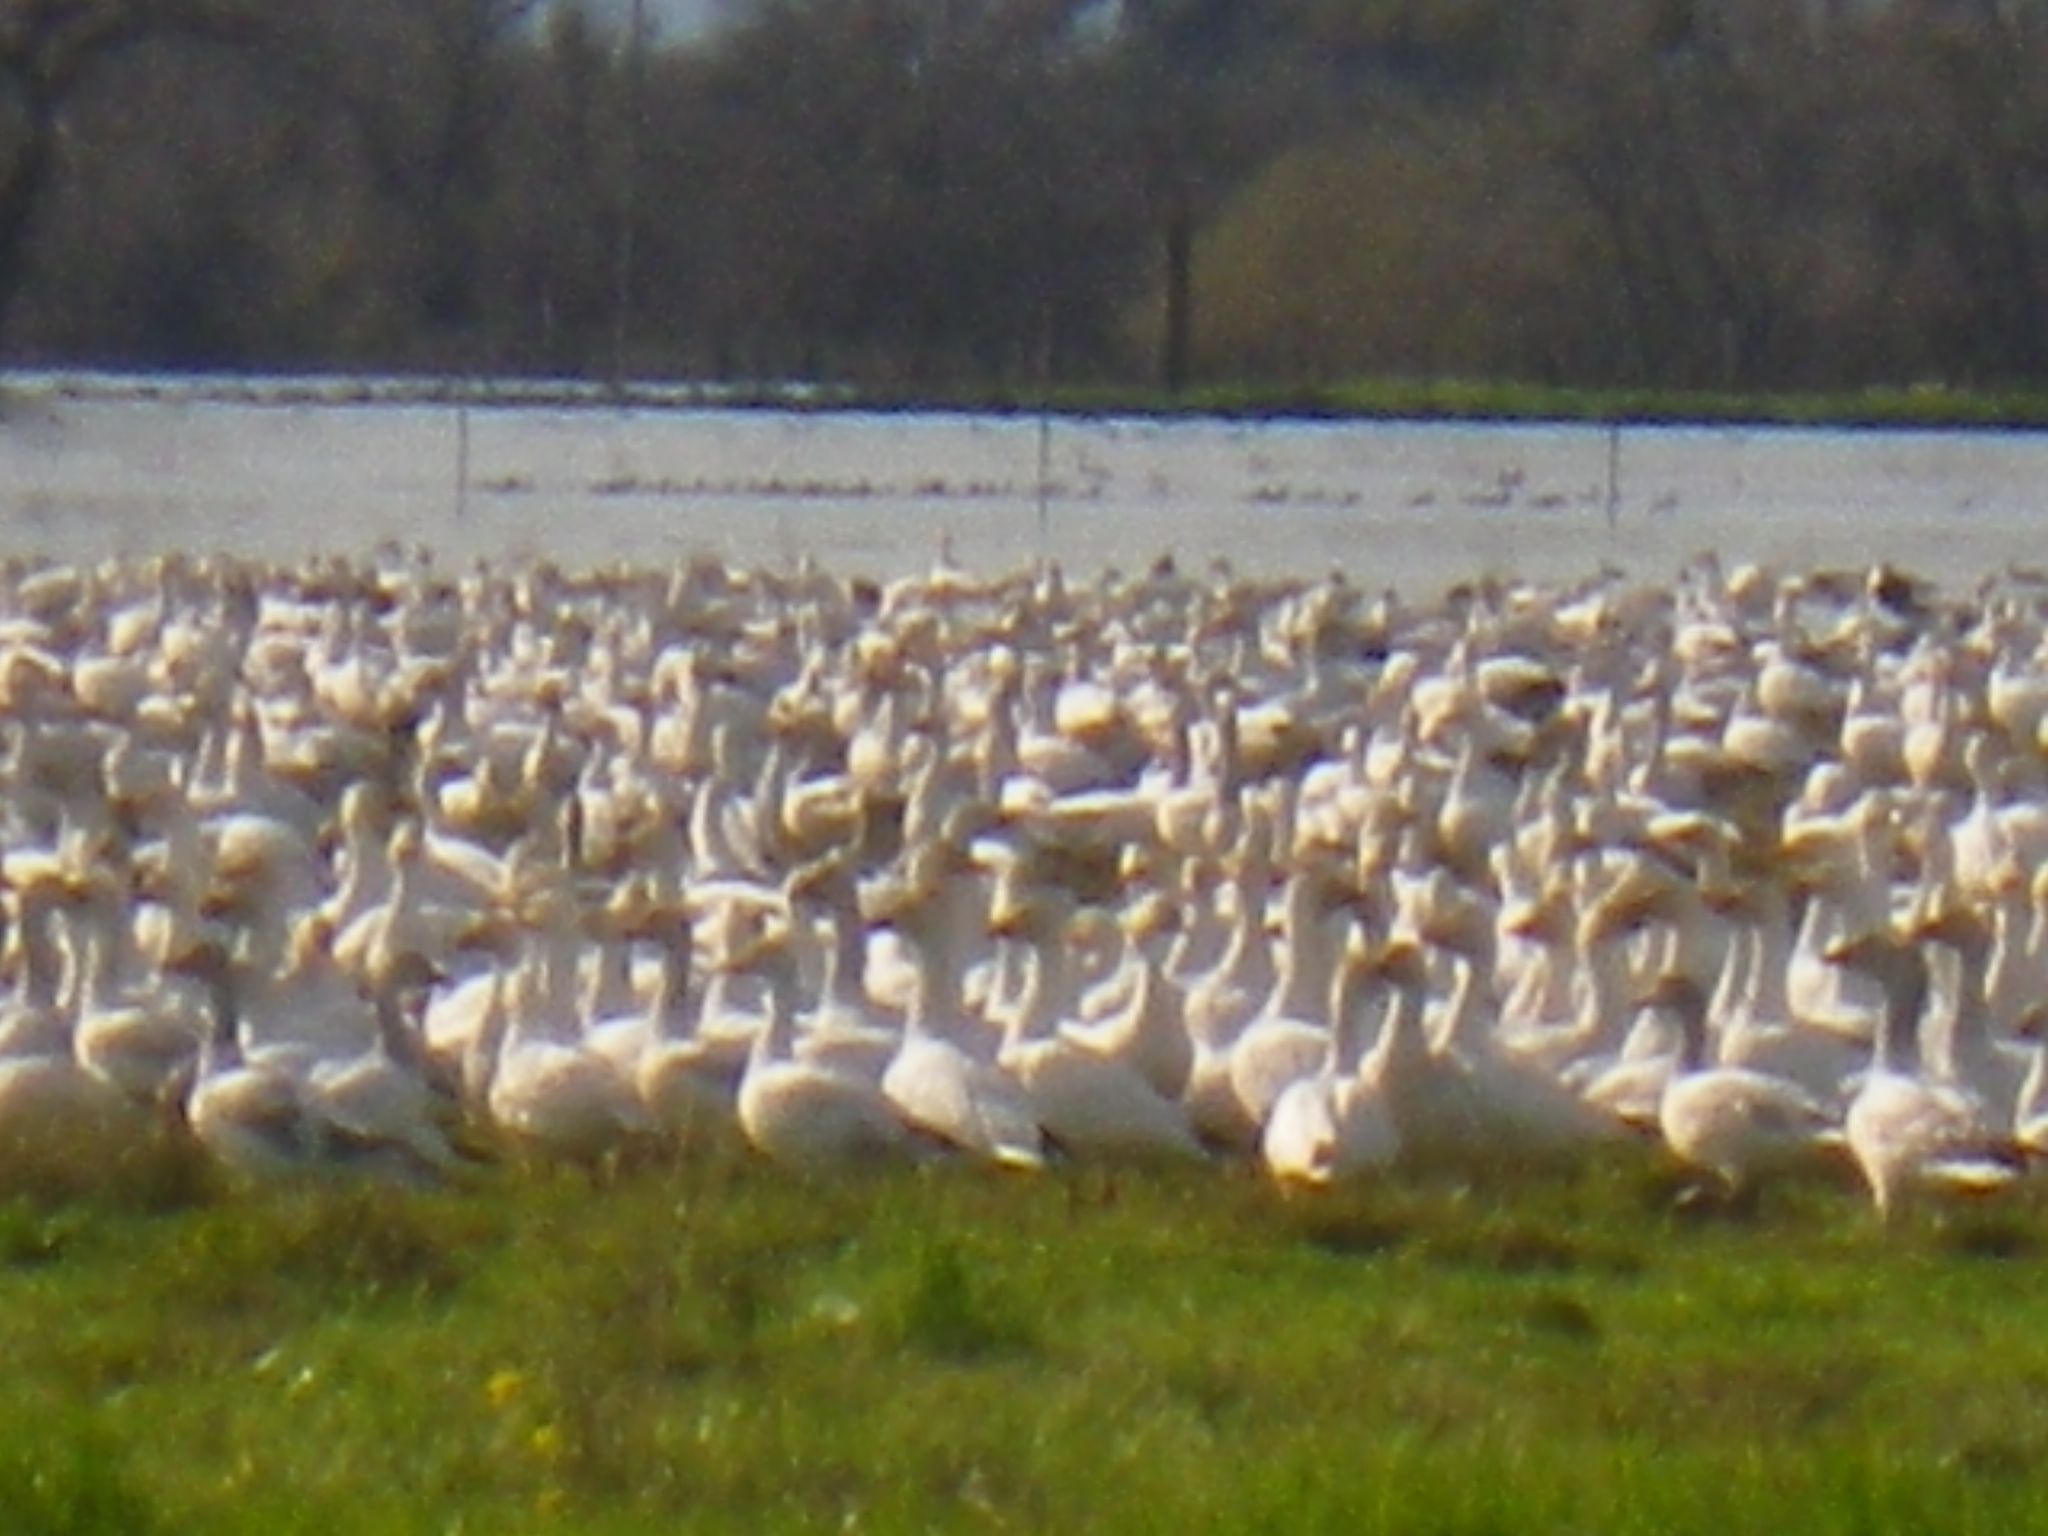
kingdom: Animalia
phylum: Chordata
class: Aves
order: Anseriformes
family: Anatidae
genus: Anser
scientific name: Anser caerulescens
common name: Snow goose
